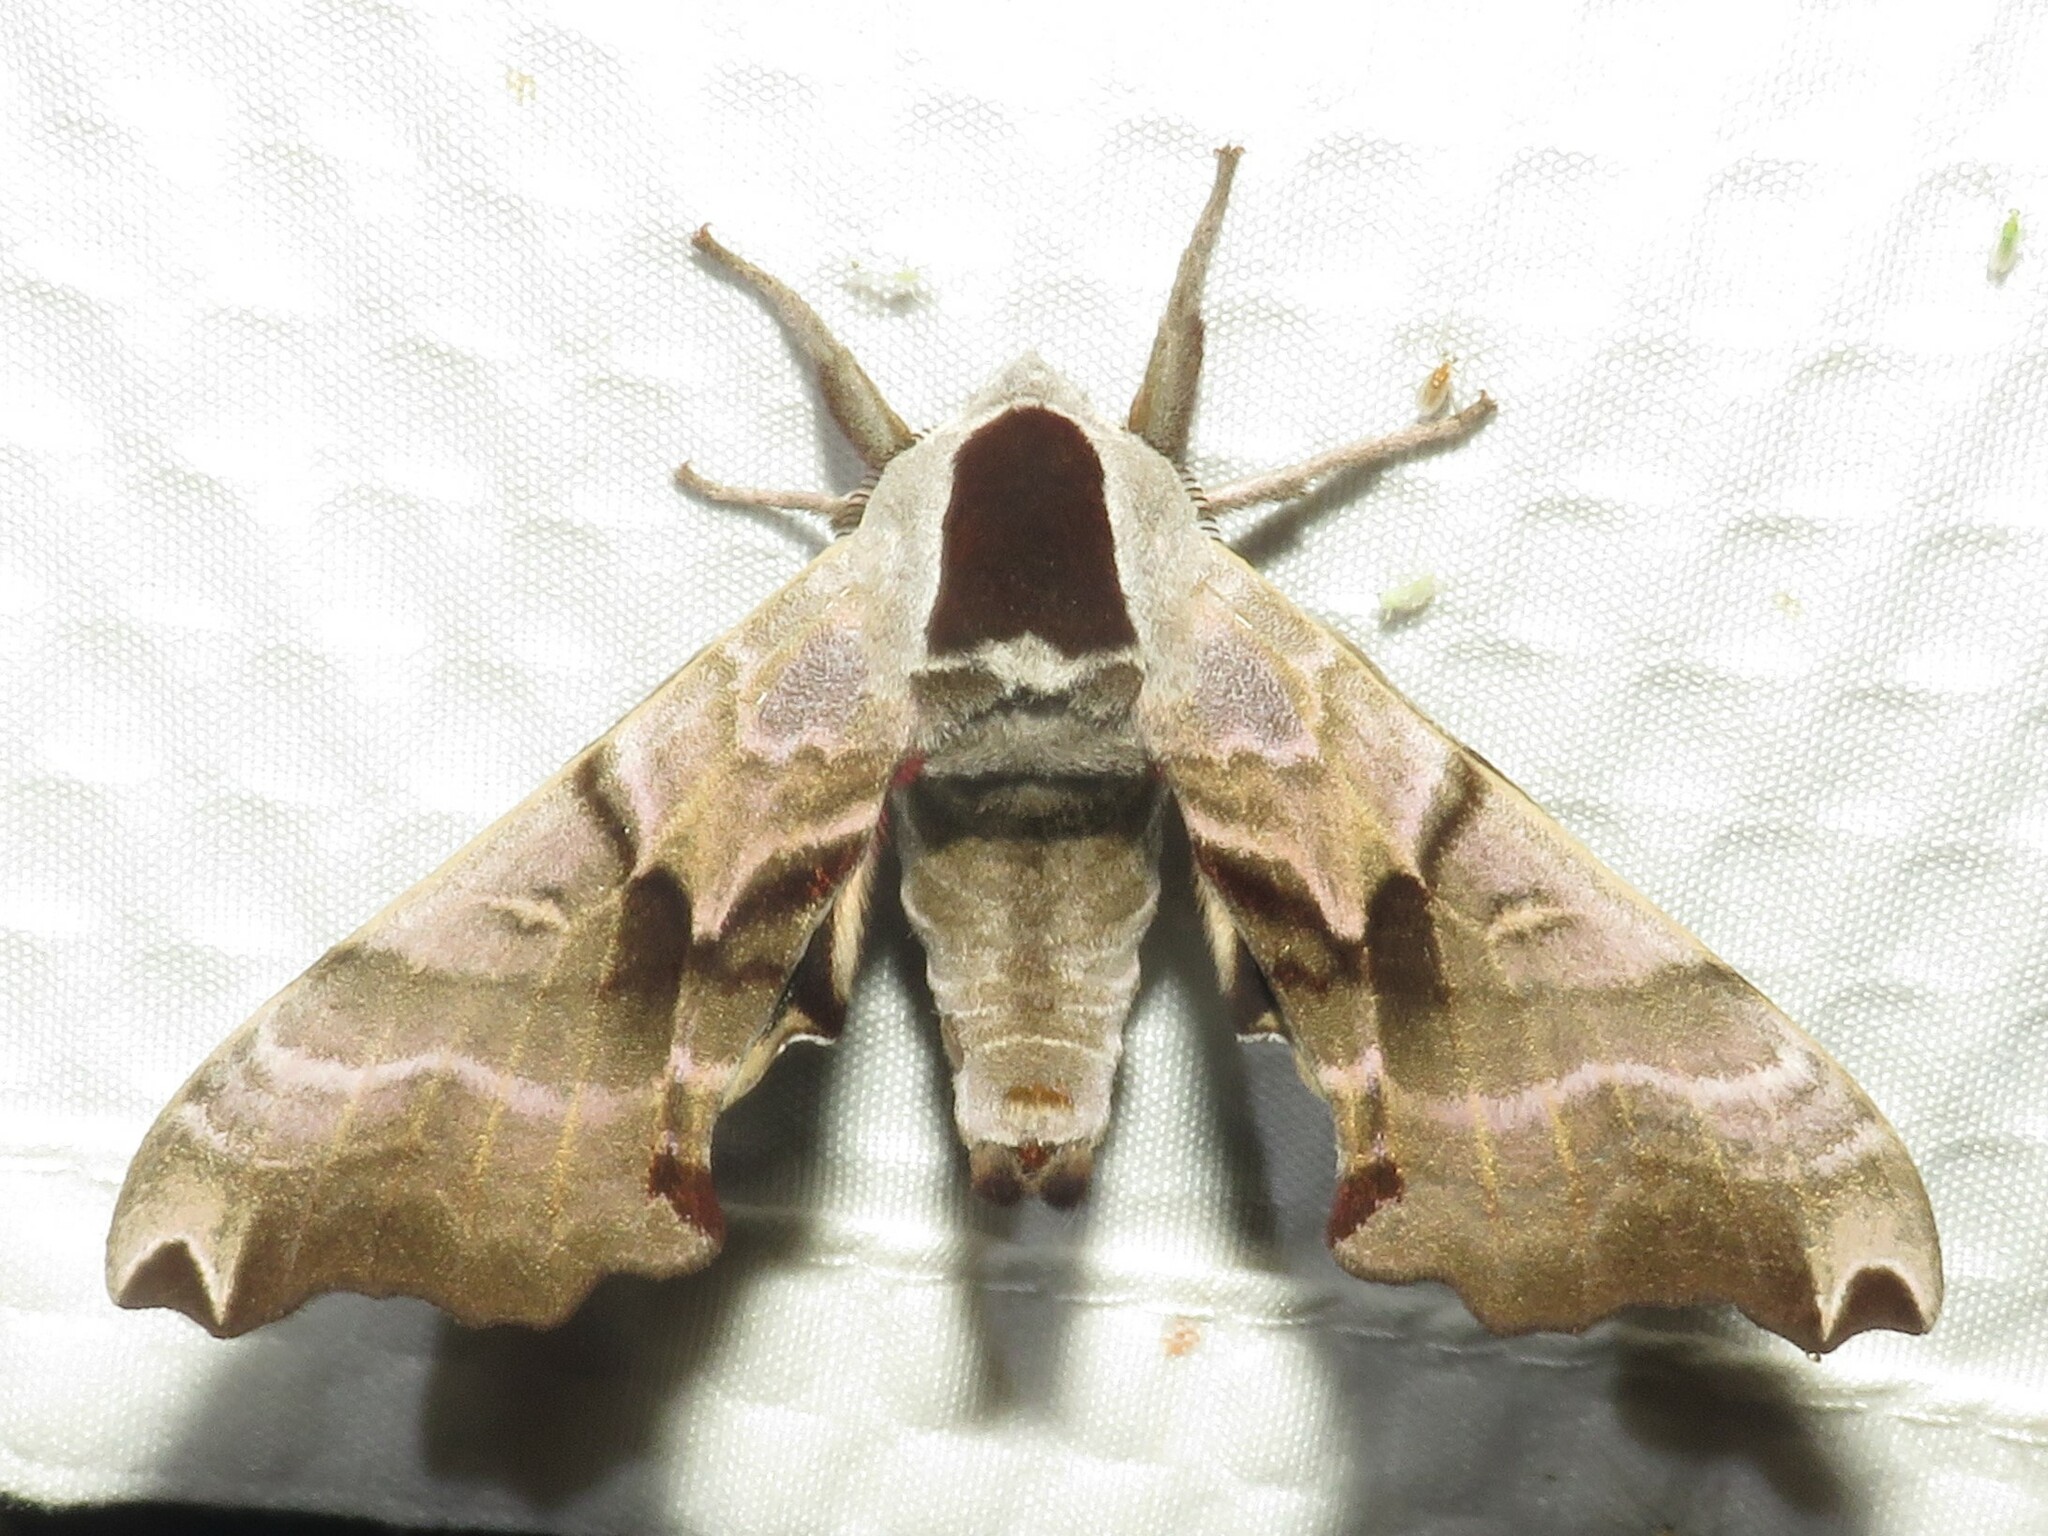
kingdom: Animalia
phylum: Arthropoda
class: Insecta
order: Lepidoptera
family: Sphingidae
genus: Smerinthus
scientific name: Smerinthus jamaicensis
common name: Twin spotted sphinx
